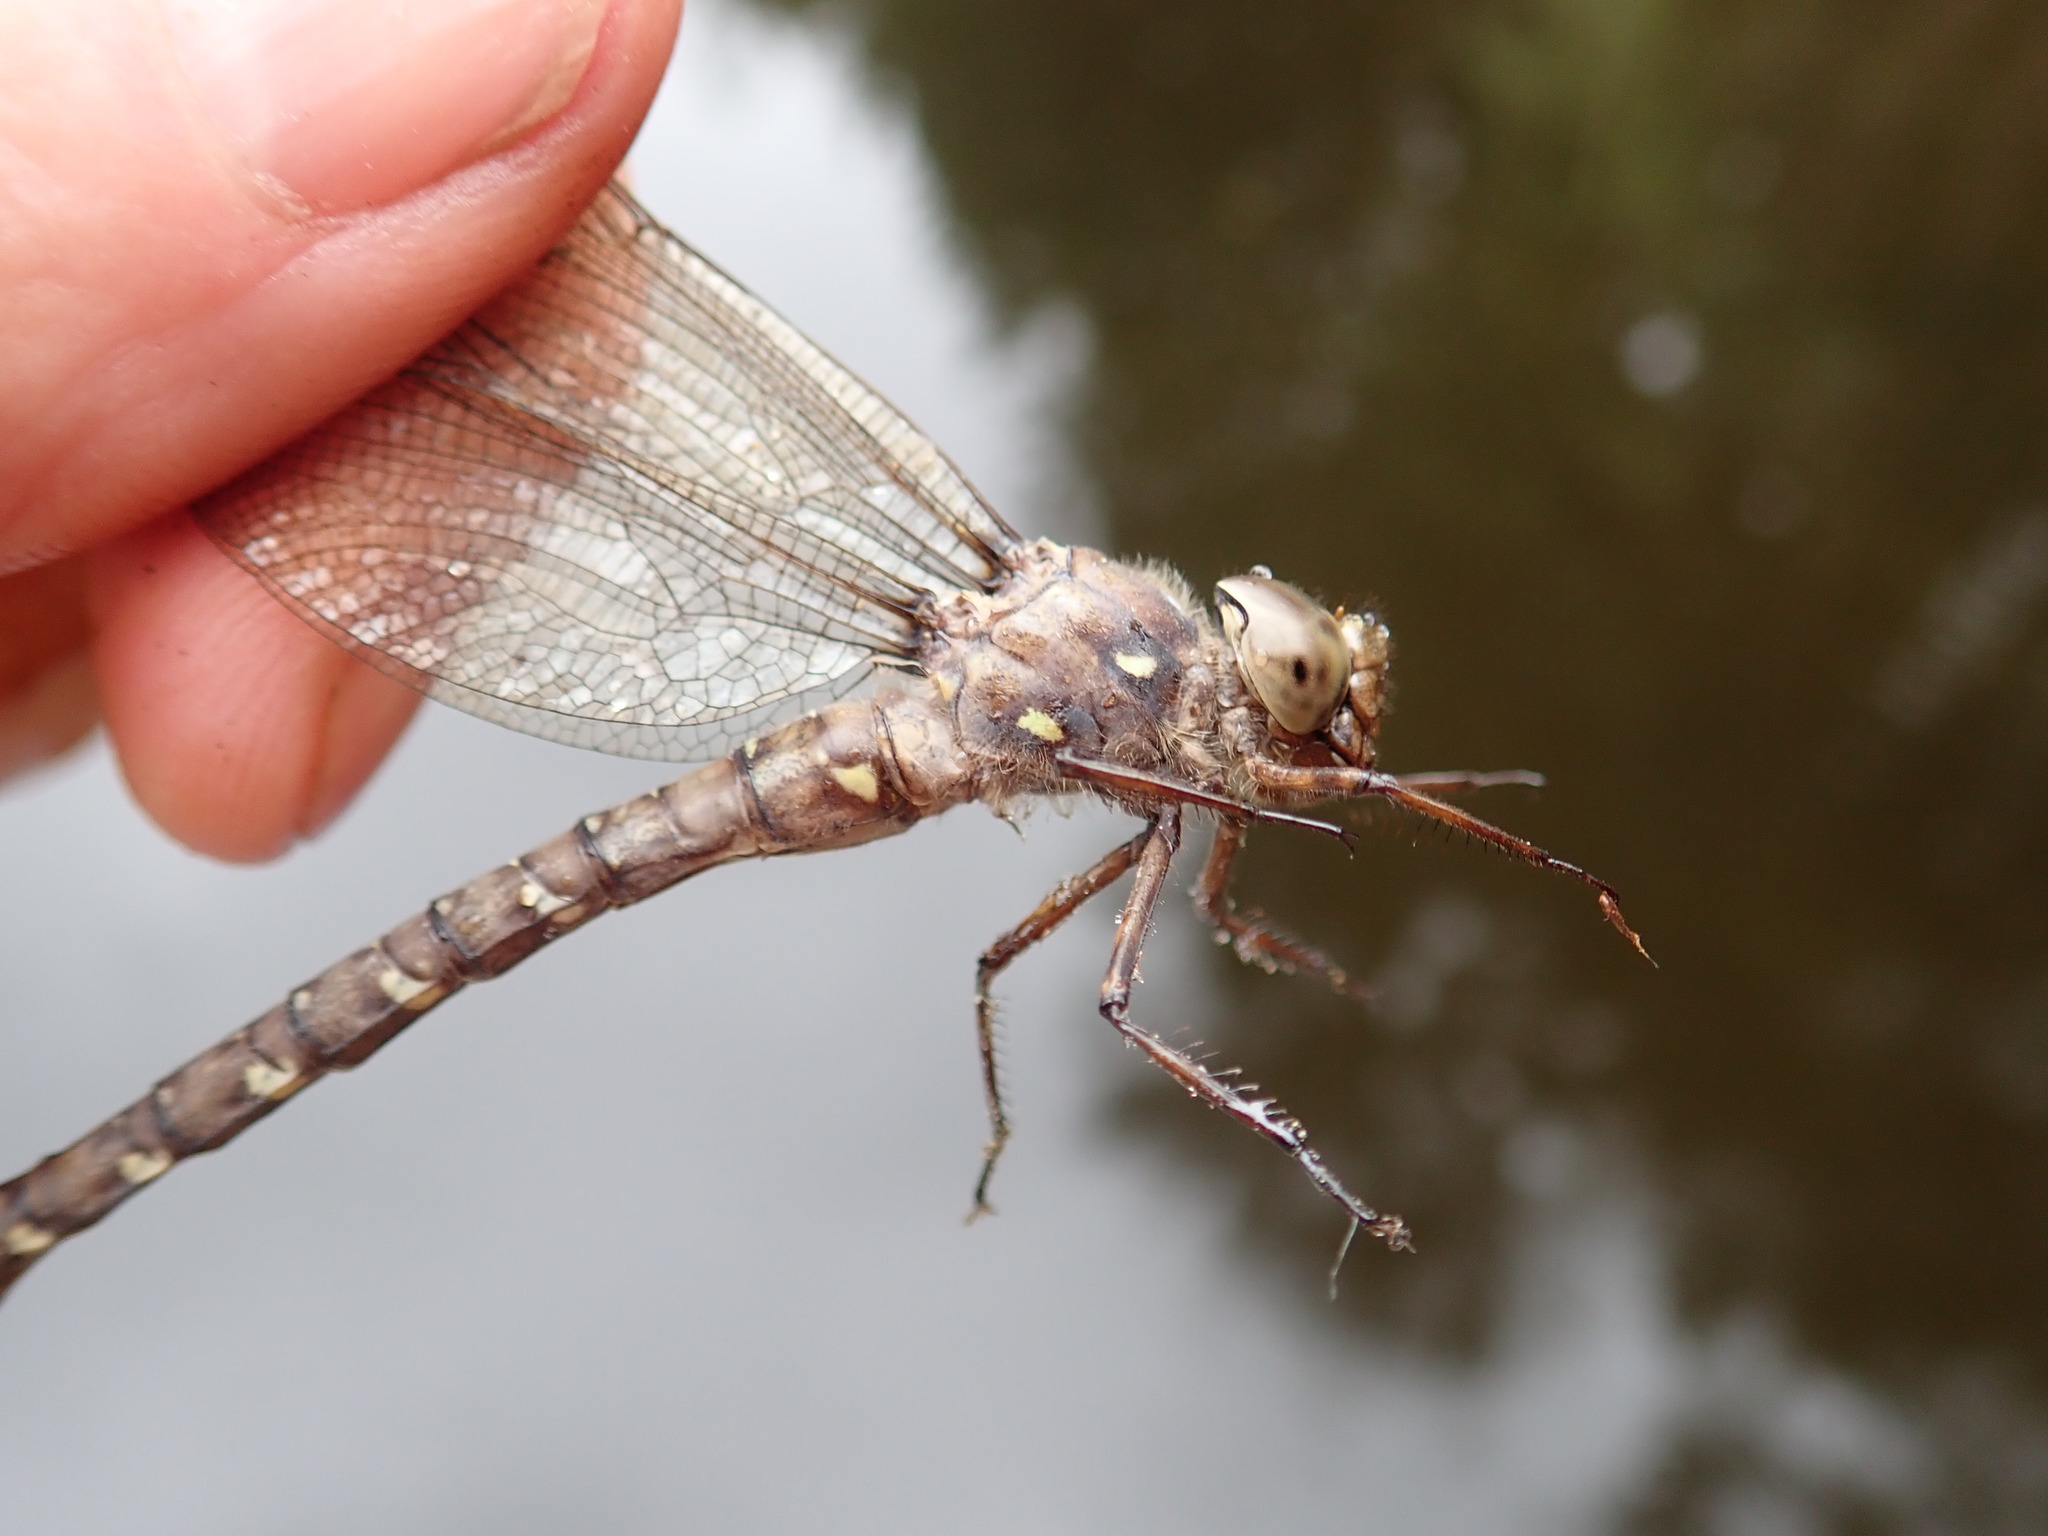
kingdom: Animalia
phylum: Arthropoda
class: Insecta
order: Odonata
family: Aeshnidae
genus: Boyeria
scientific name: Boyeria grafiana
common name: Ocellated darner
